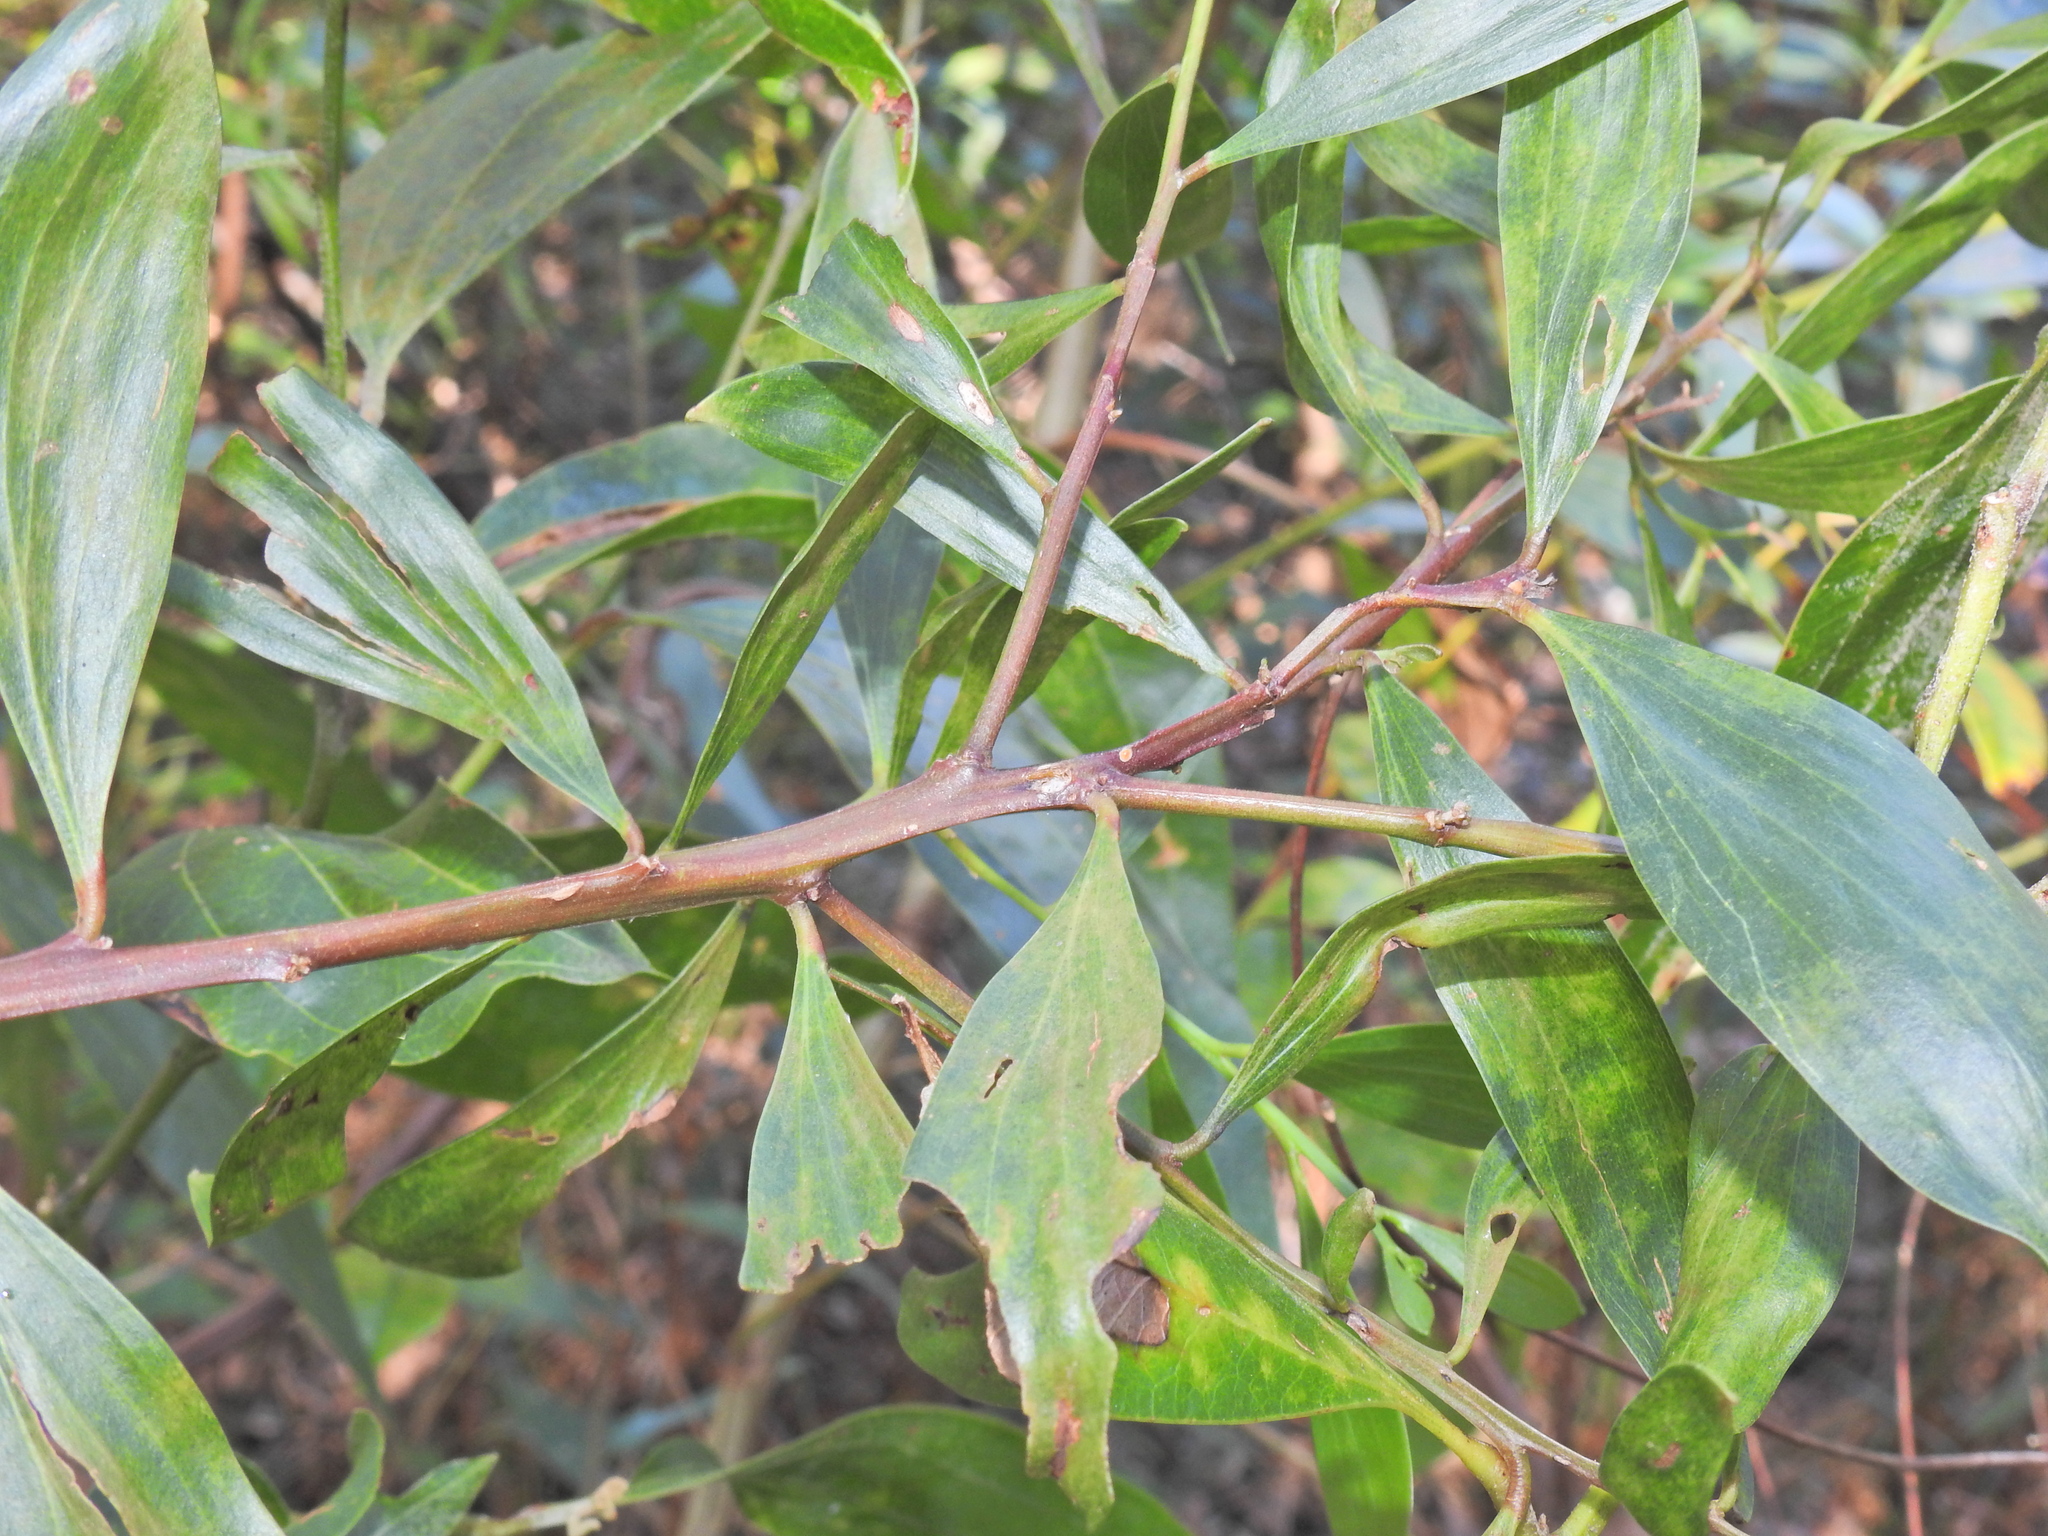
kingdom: Plantae
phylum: Tracheophyta
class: Magnoliopsida
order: Fabales
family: Fabaceae
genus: Acacia
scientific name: Acacia leiocalyx
